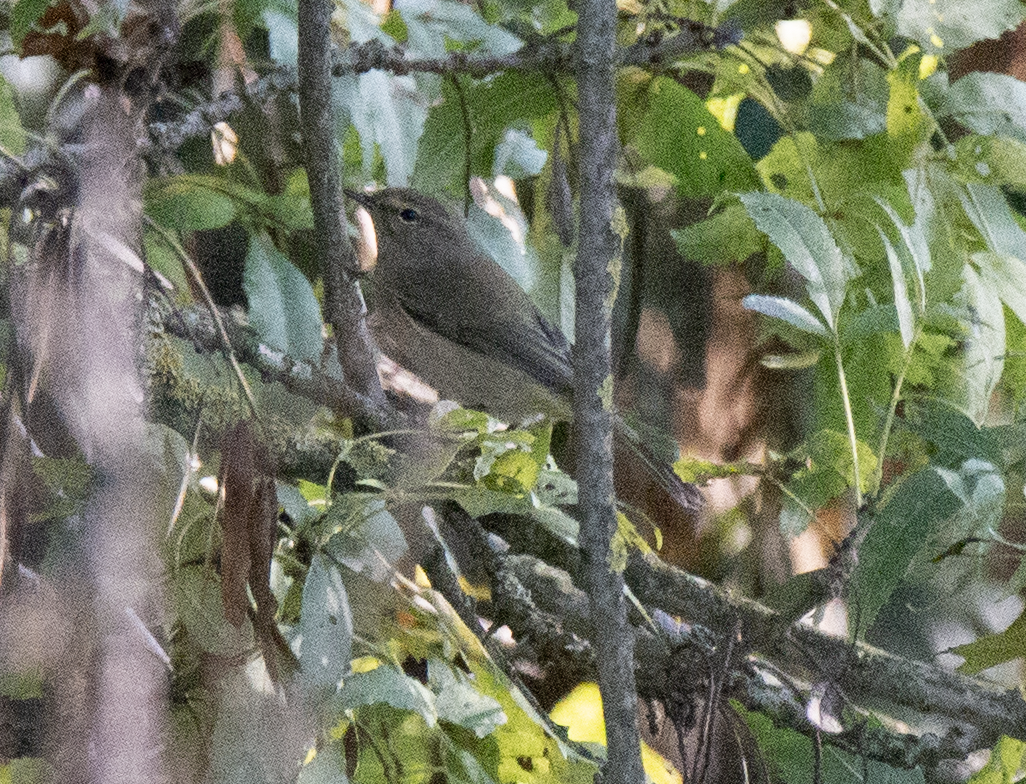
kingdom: Animalia
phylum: Chordata
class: Aves
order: Passeriformes
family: Phylloscopidae
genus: Phylloscopus
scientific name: Phylloscopus collybita
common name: Common chiffchaff
